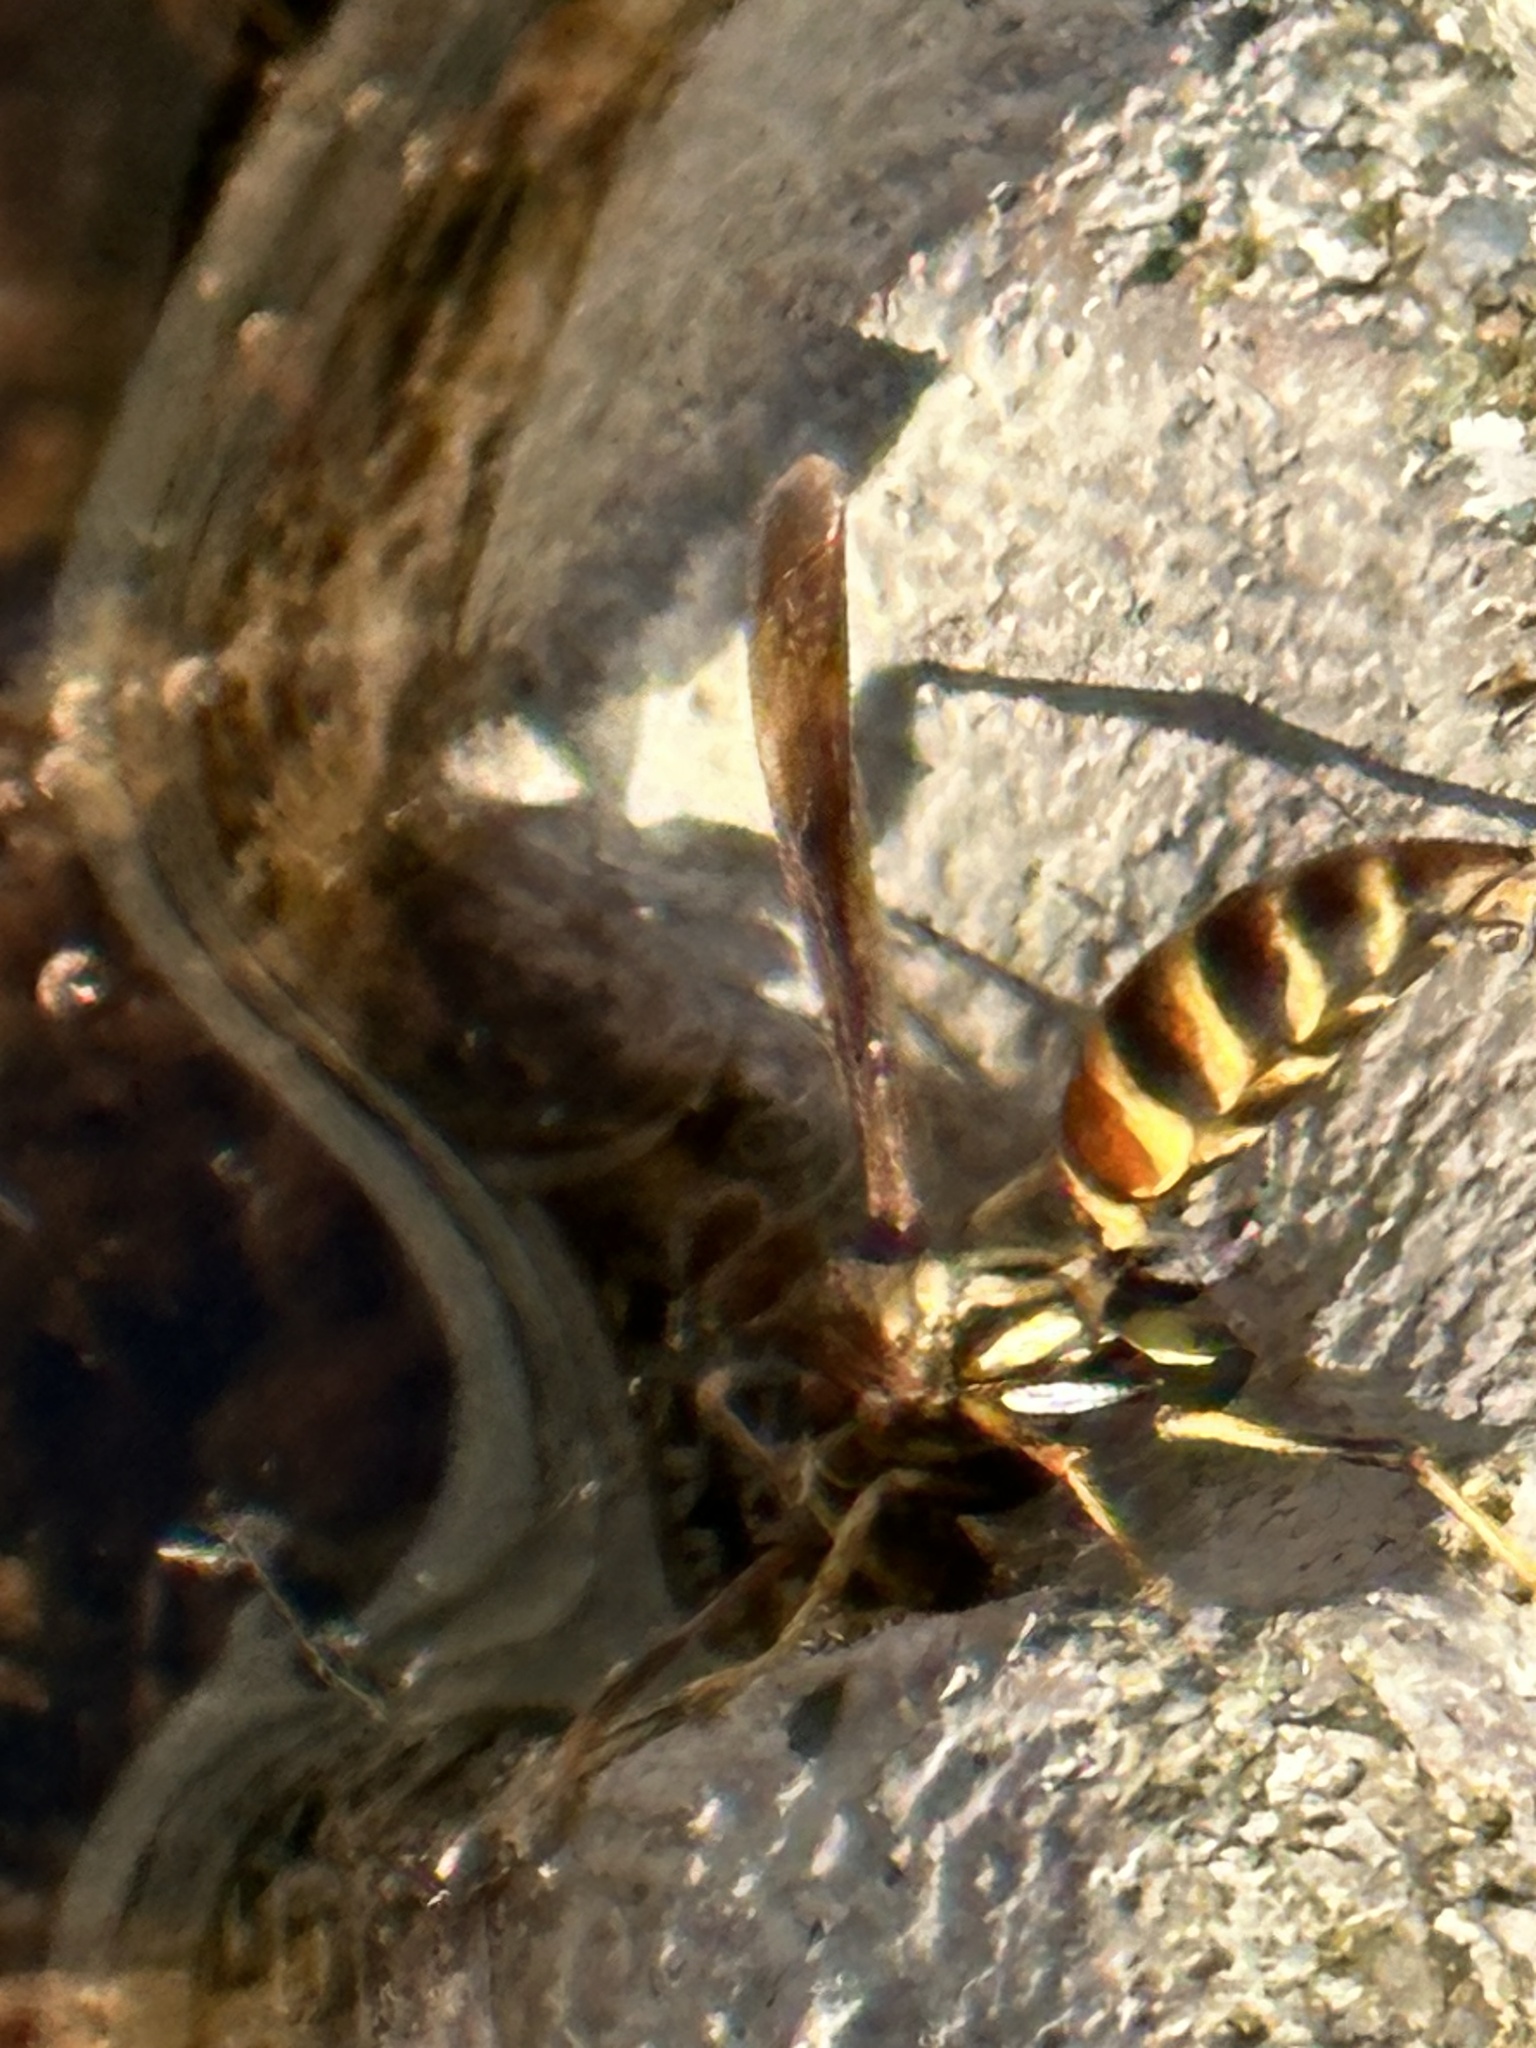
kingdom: Animalia
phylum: Arthropoda
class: Insecta
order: Hymenoptera
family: Eumenidae
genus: Polistes
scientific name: Polistes exclamans
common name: Paper wasp
